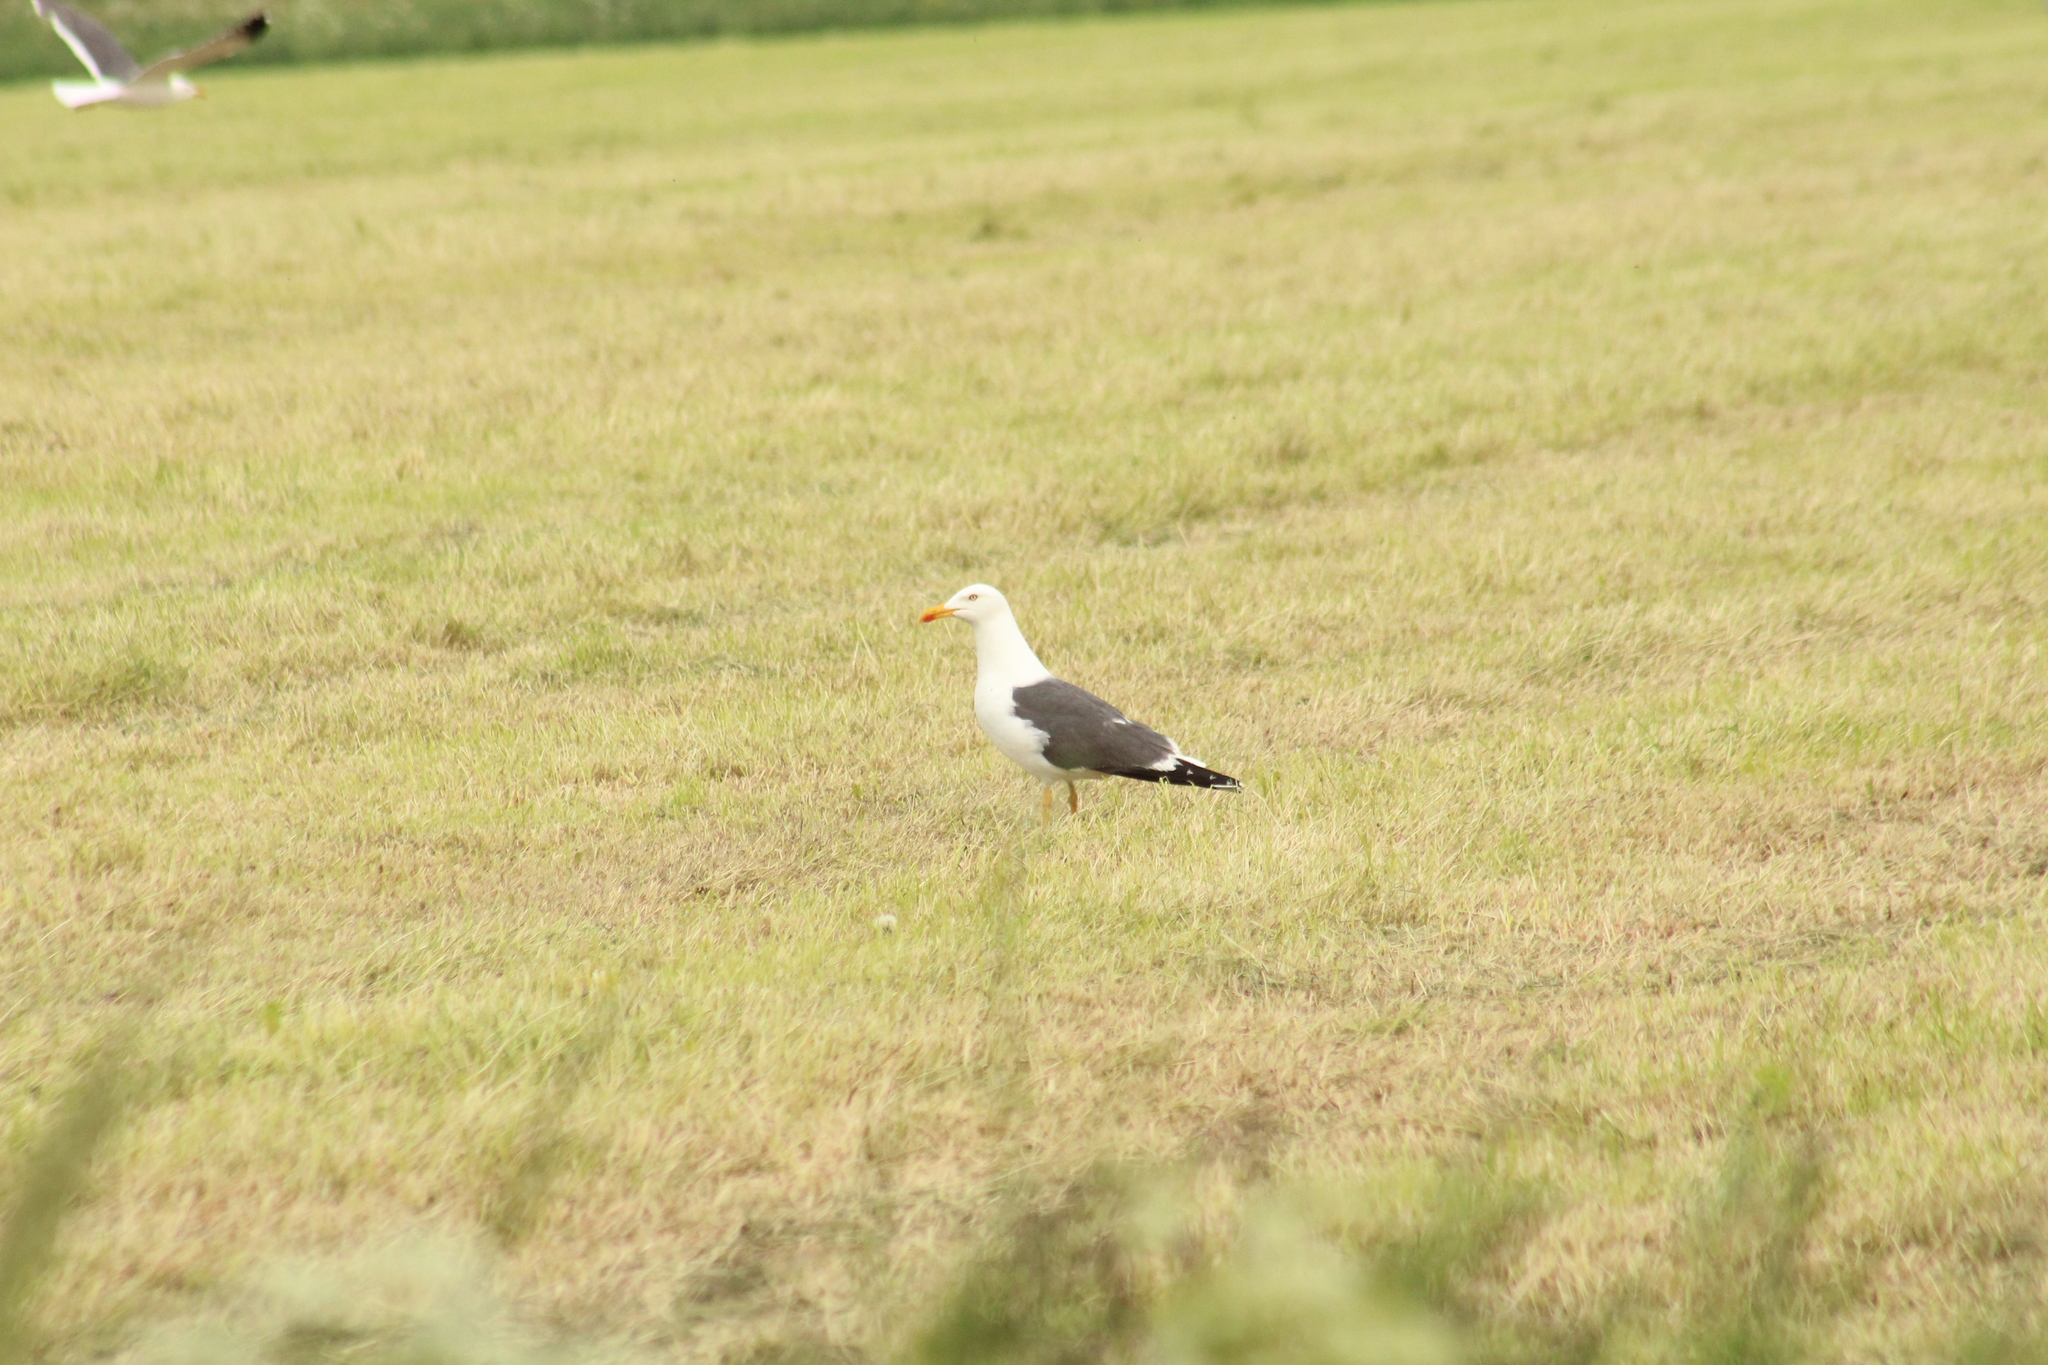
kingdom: Animalia
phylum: Chordata
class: Aves
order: Charadriiformes
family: Laridae
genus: Larus
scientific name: Larus fuscus
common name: Lesser black-backed gull
